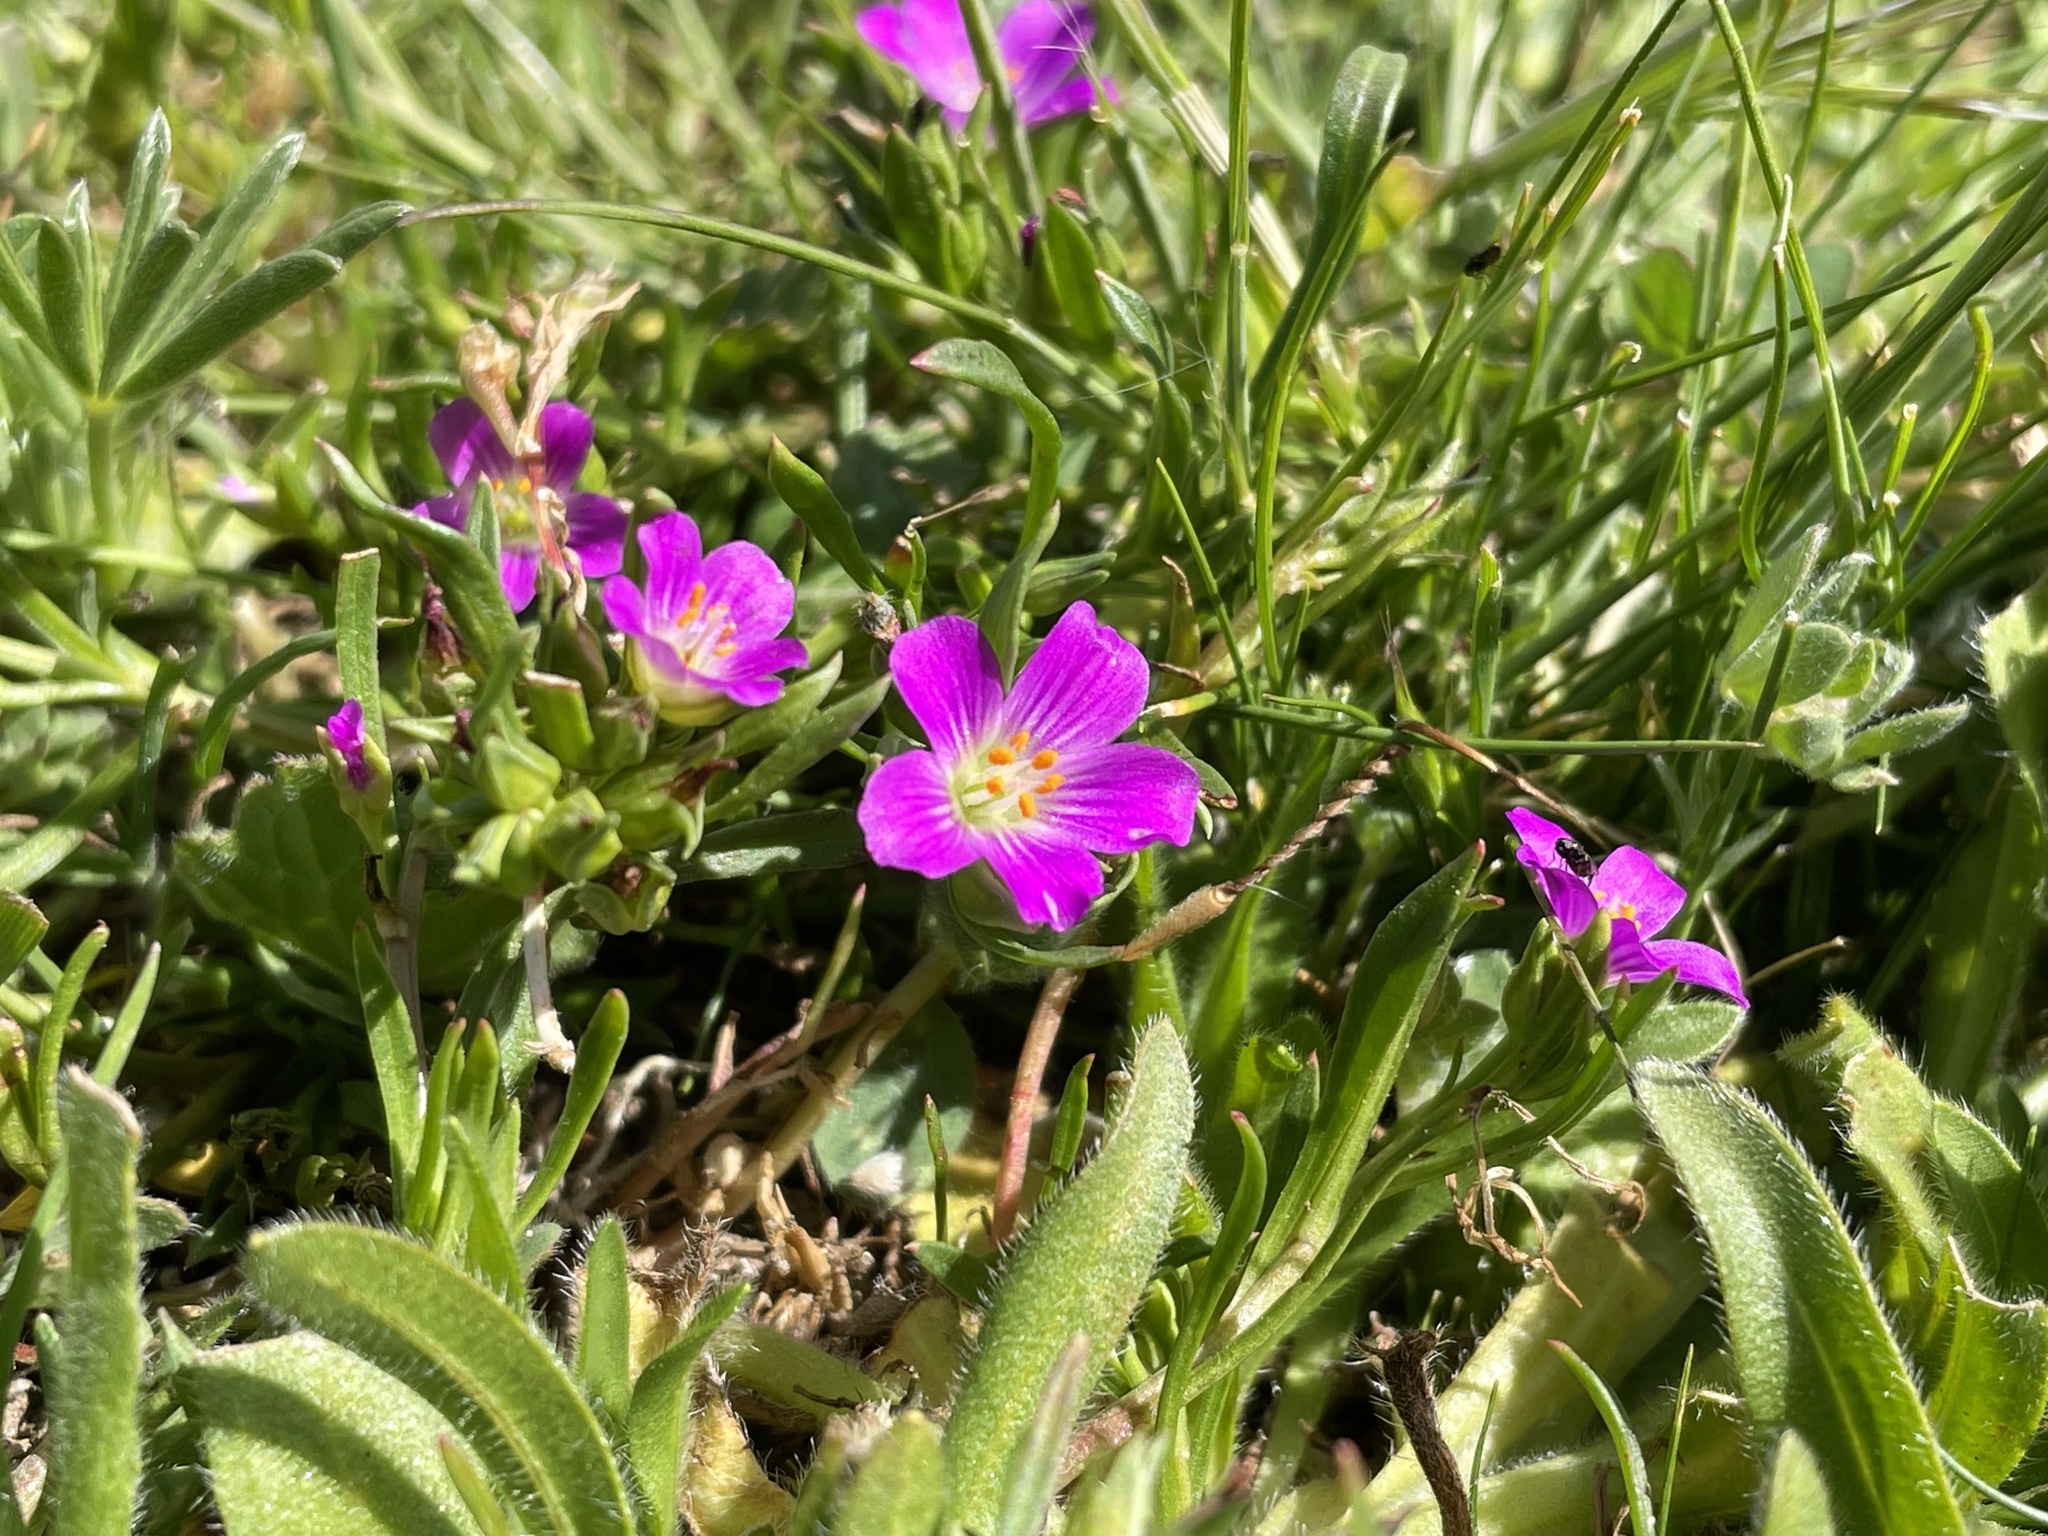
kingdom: Plantae
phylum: Tracheophyta
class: Magnoliopsida
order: Caryophyllales
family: Montiaceae
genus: Calandrinia
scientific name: Calandrinia menziesii
